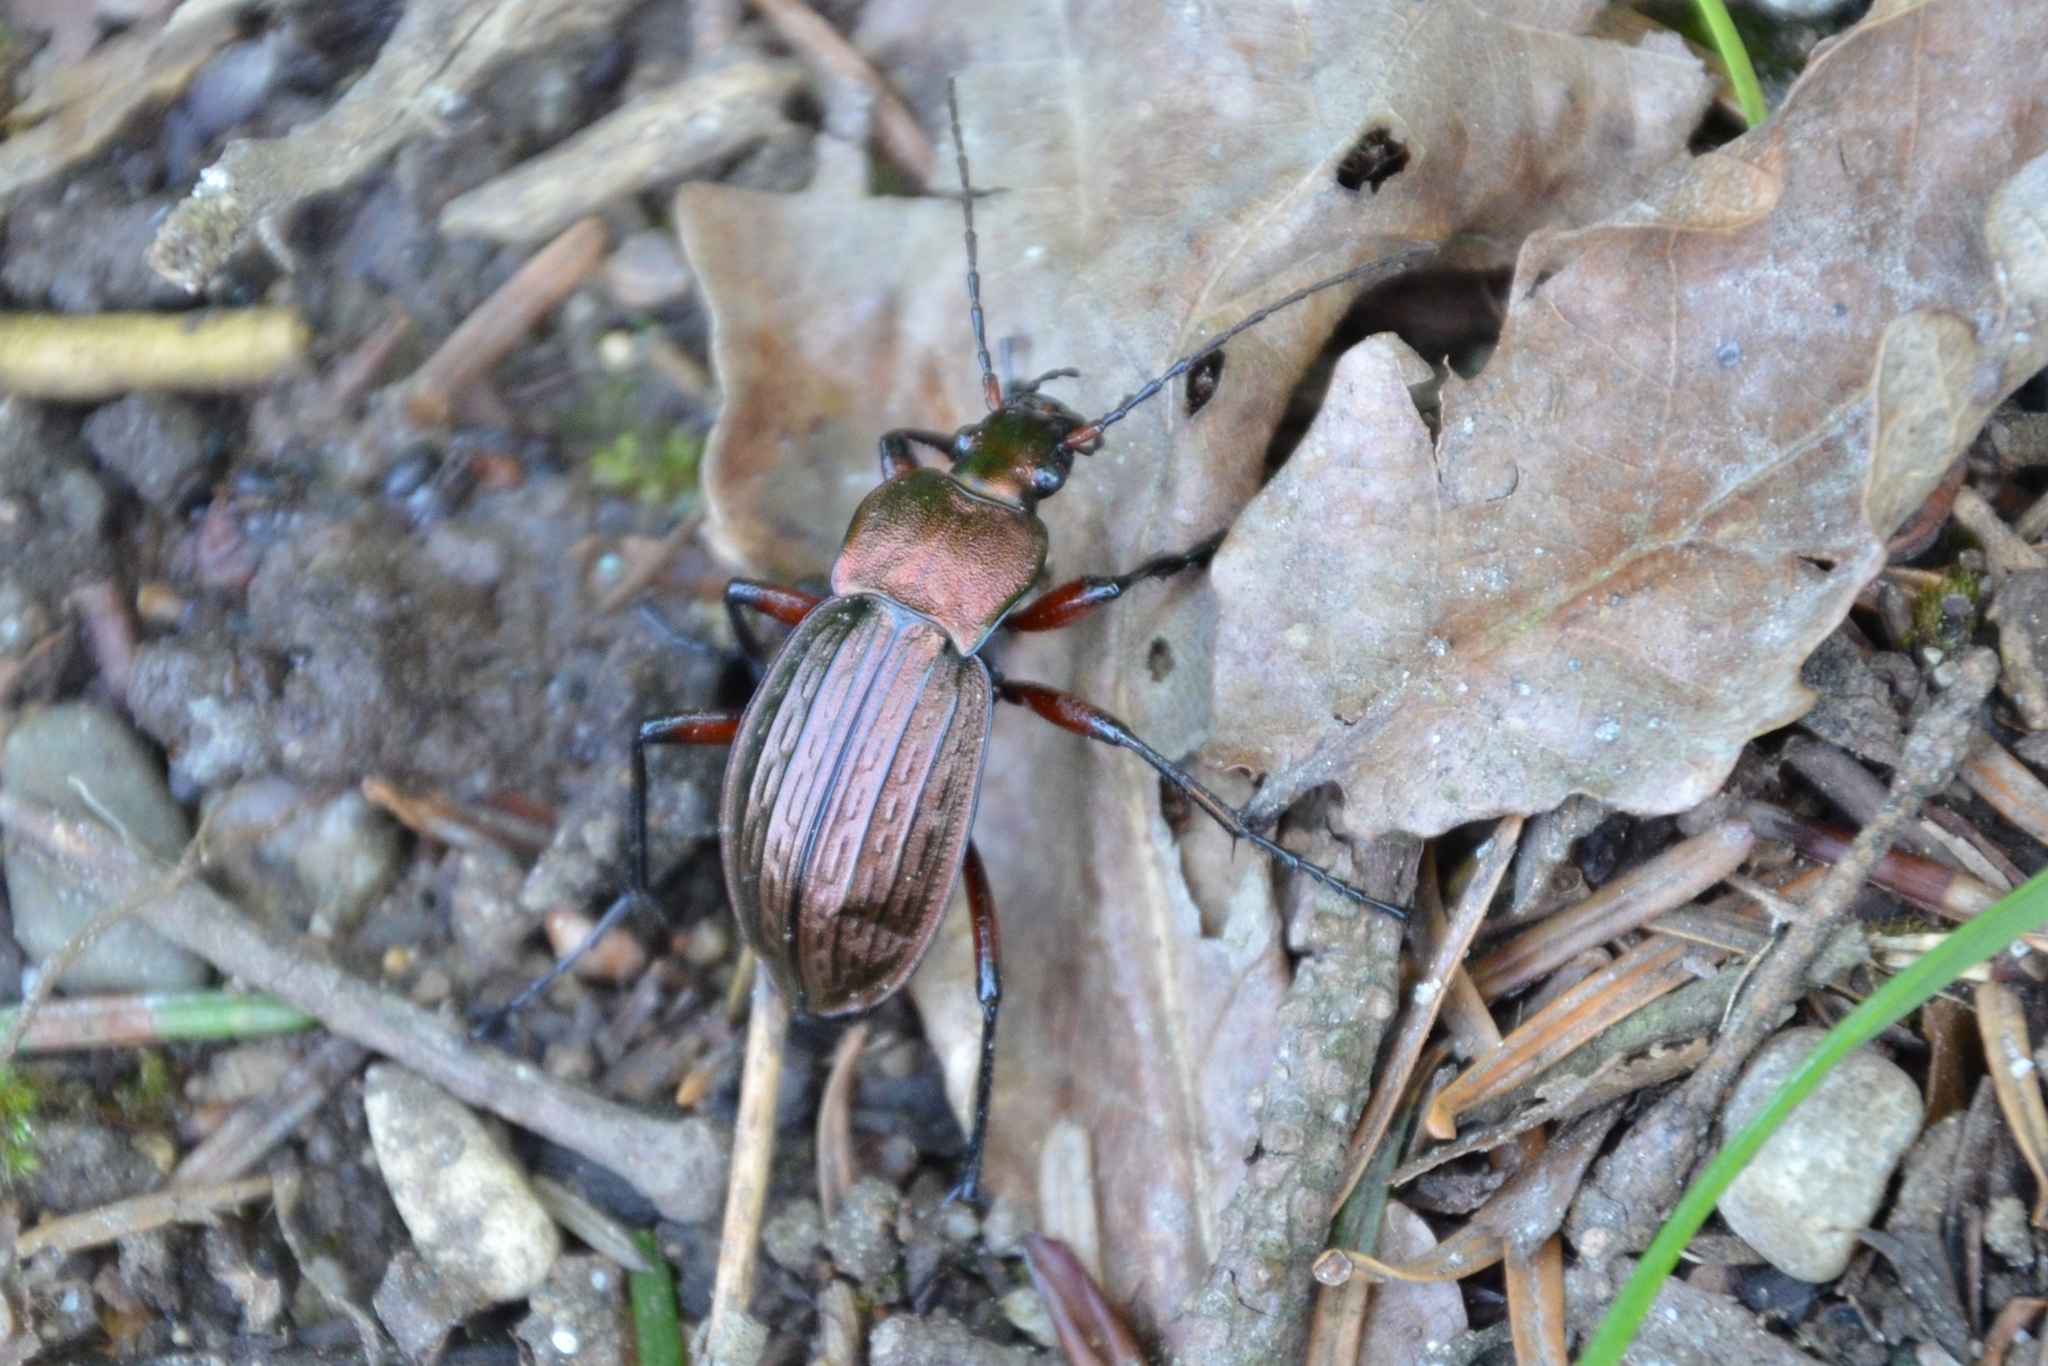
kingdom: Animalia
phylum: Arthropoda
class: Insecta
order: Coleoptera
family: Carabidae
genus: Carabus
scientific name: Carabus cancellatus
